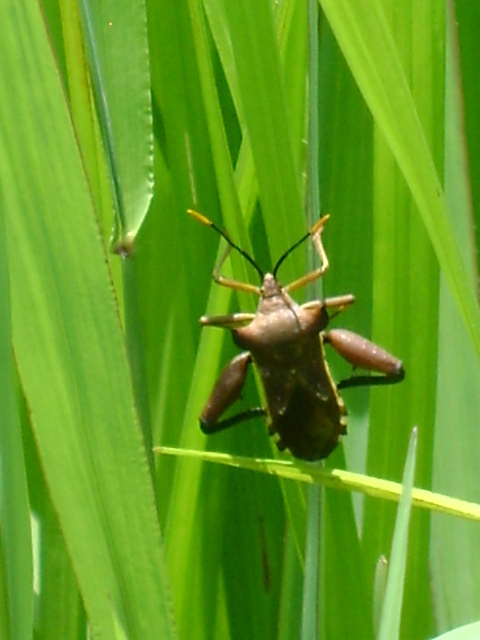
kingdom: Animalia
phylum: Arthropoda
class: Insecta
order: Hemiptera
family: Coreidae
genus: Mozena
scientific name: Mozena lunata
